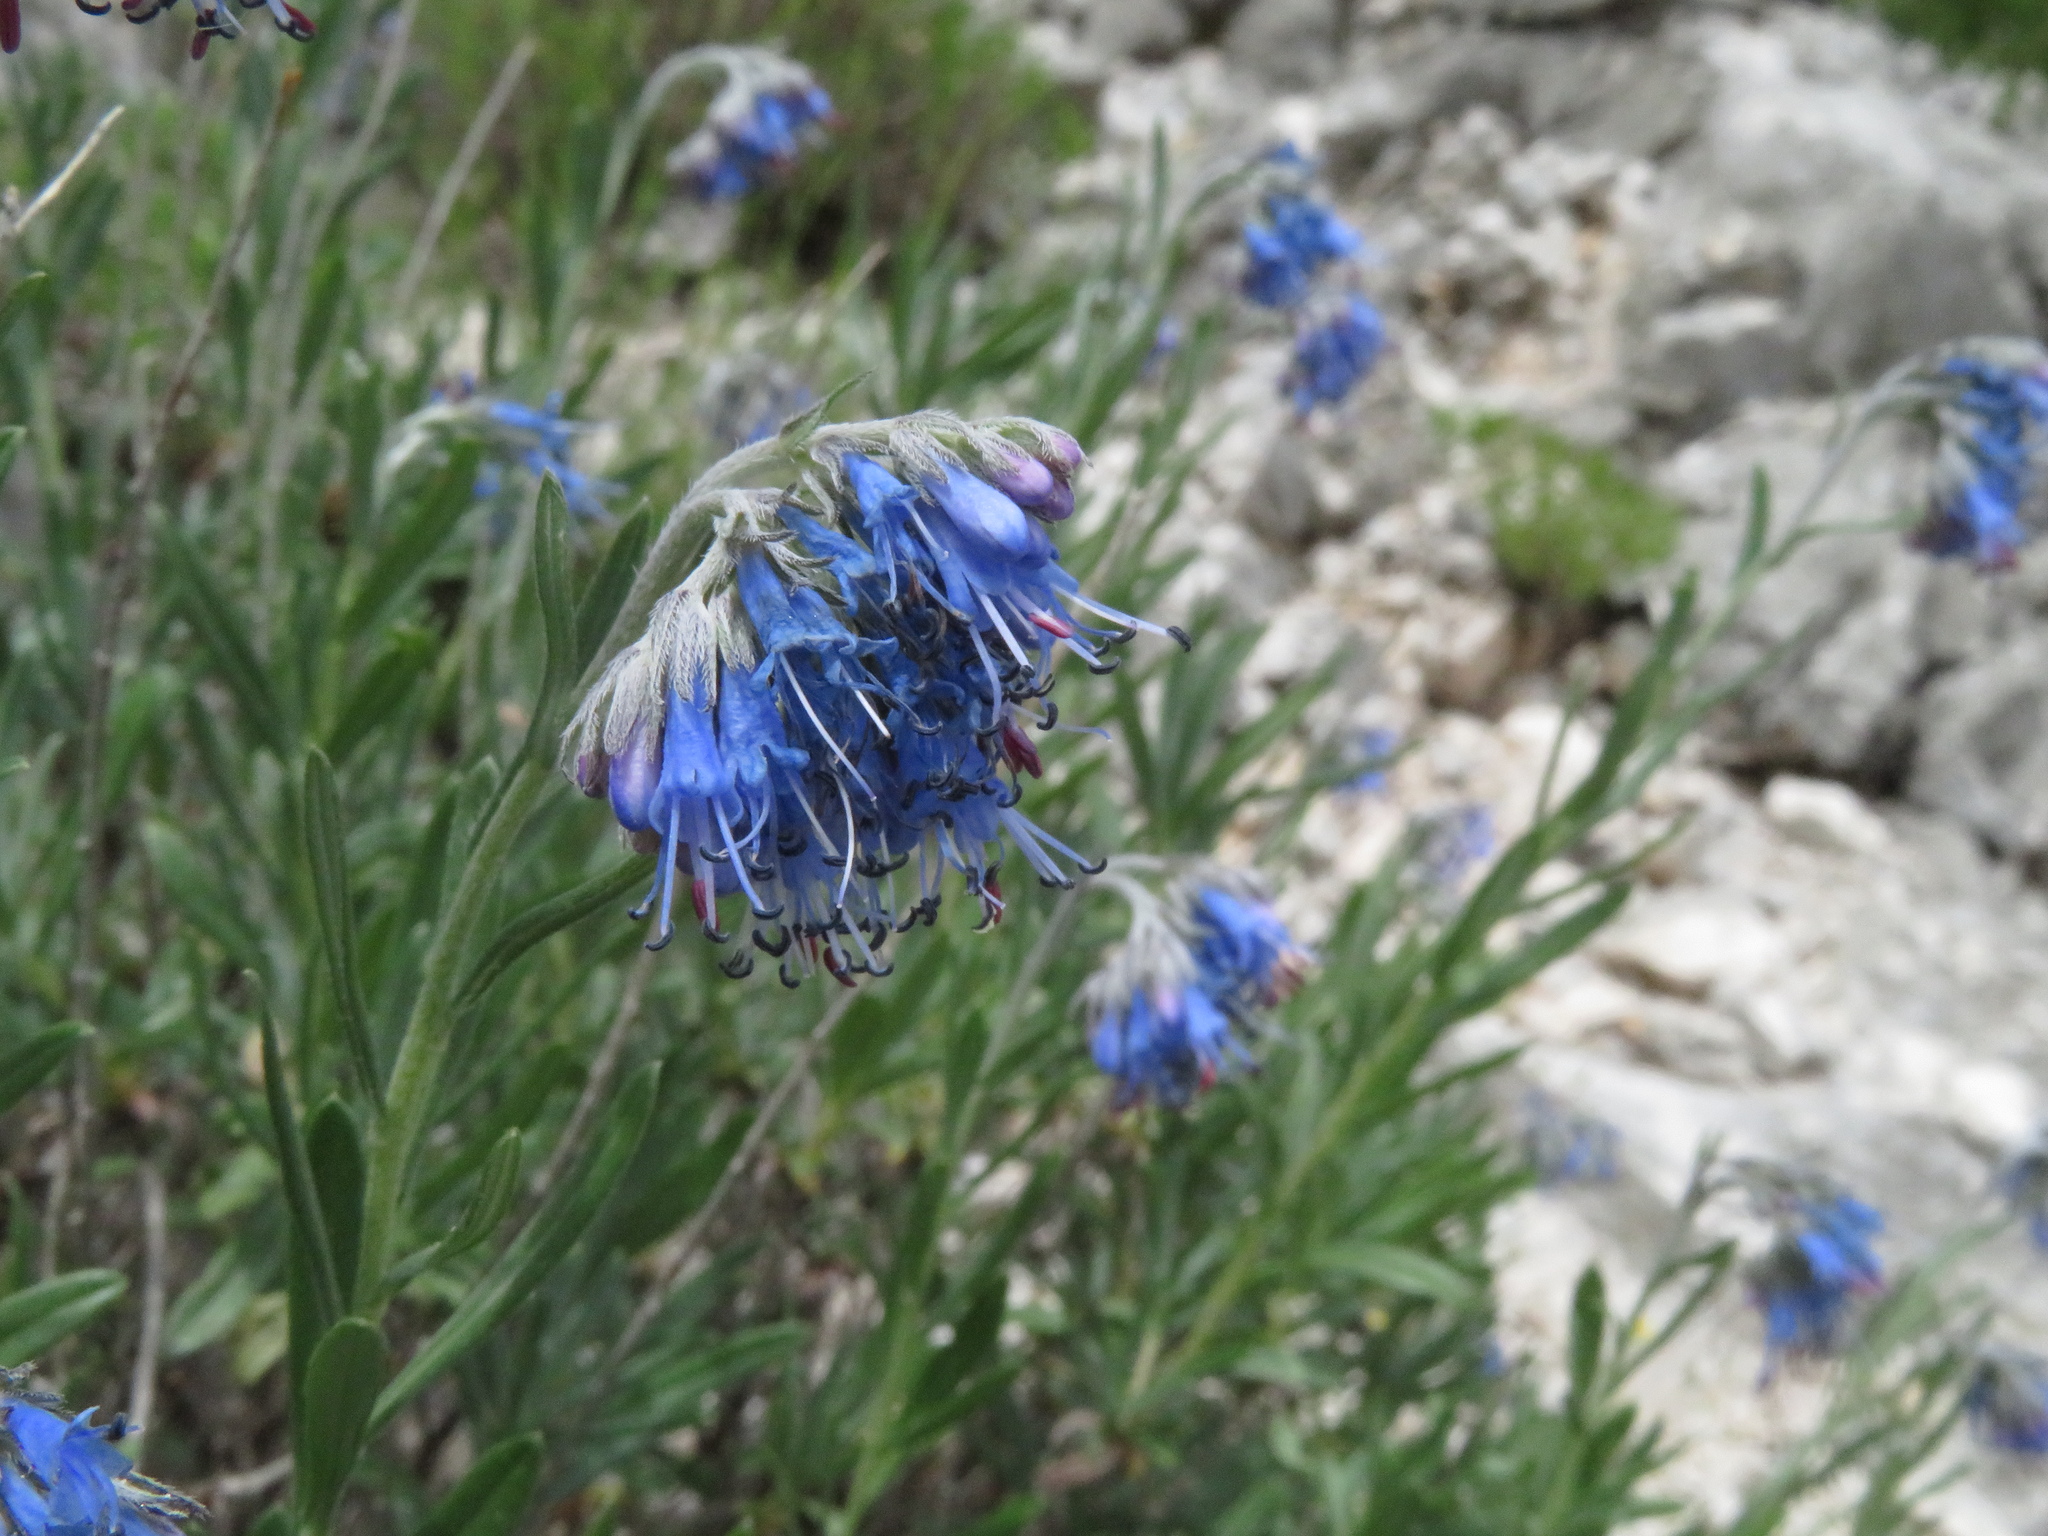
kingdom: Plantae
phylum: Tracheophyta
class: Magnoliopsida
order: Boraginales
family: Boraginaceae
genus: Moltkia
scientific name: Moltkia petraea
